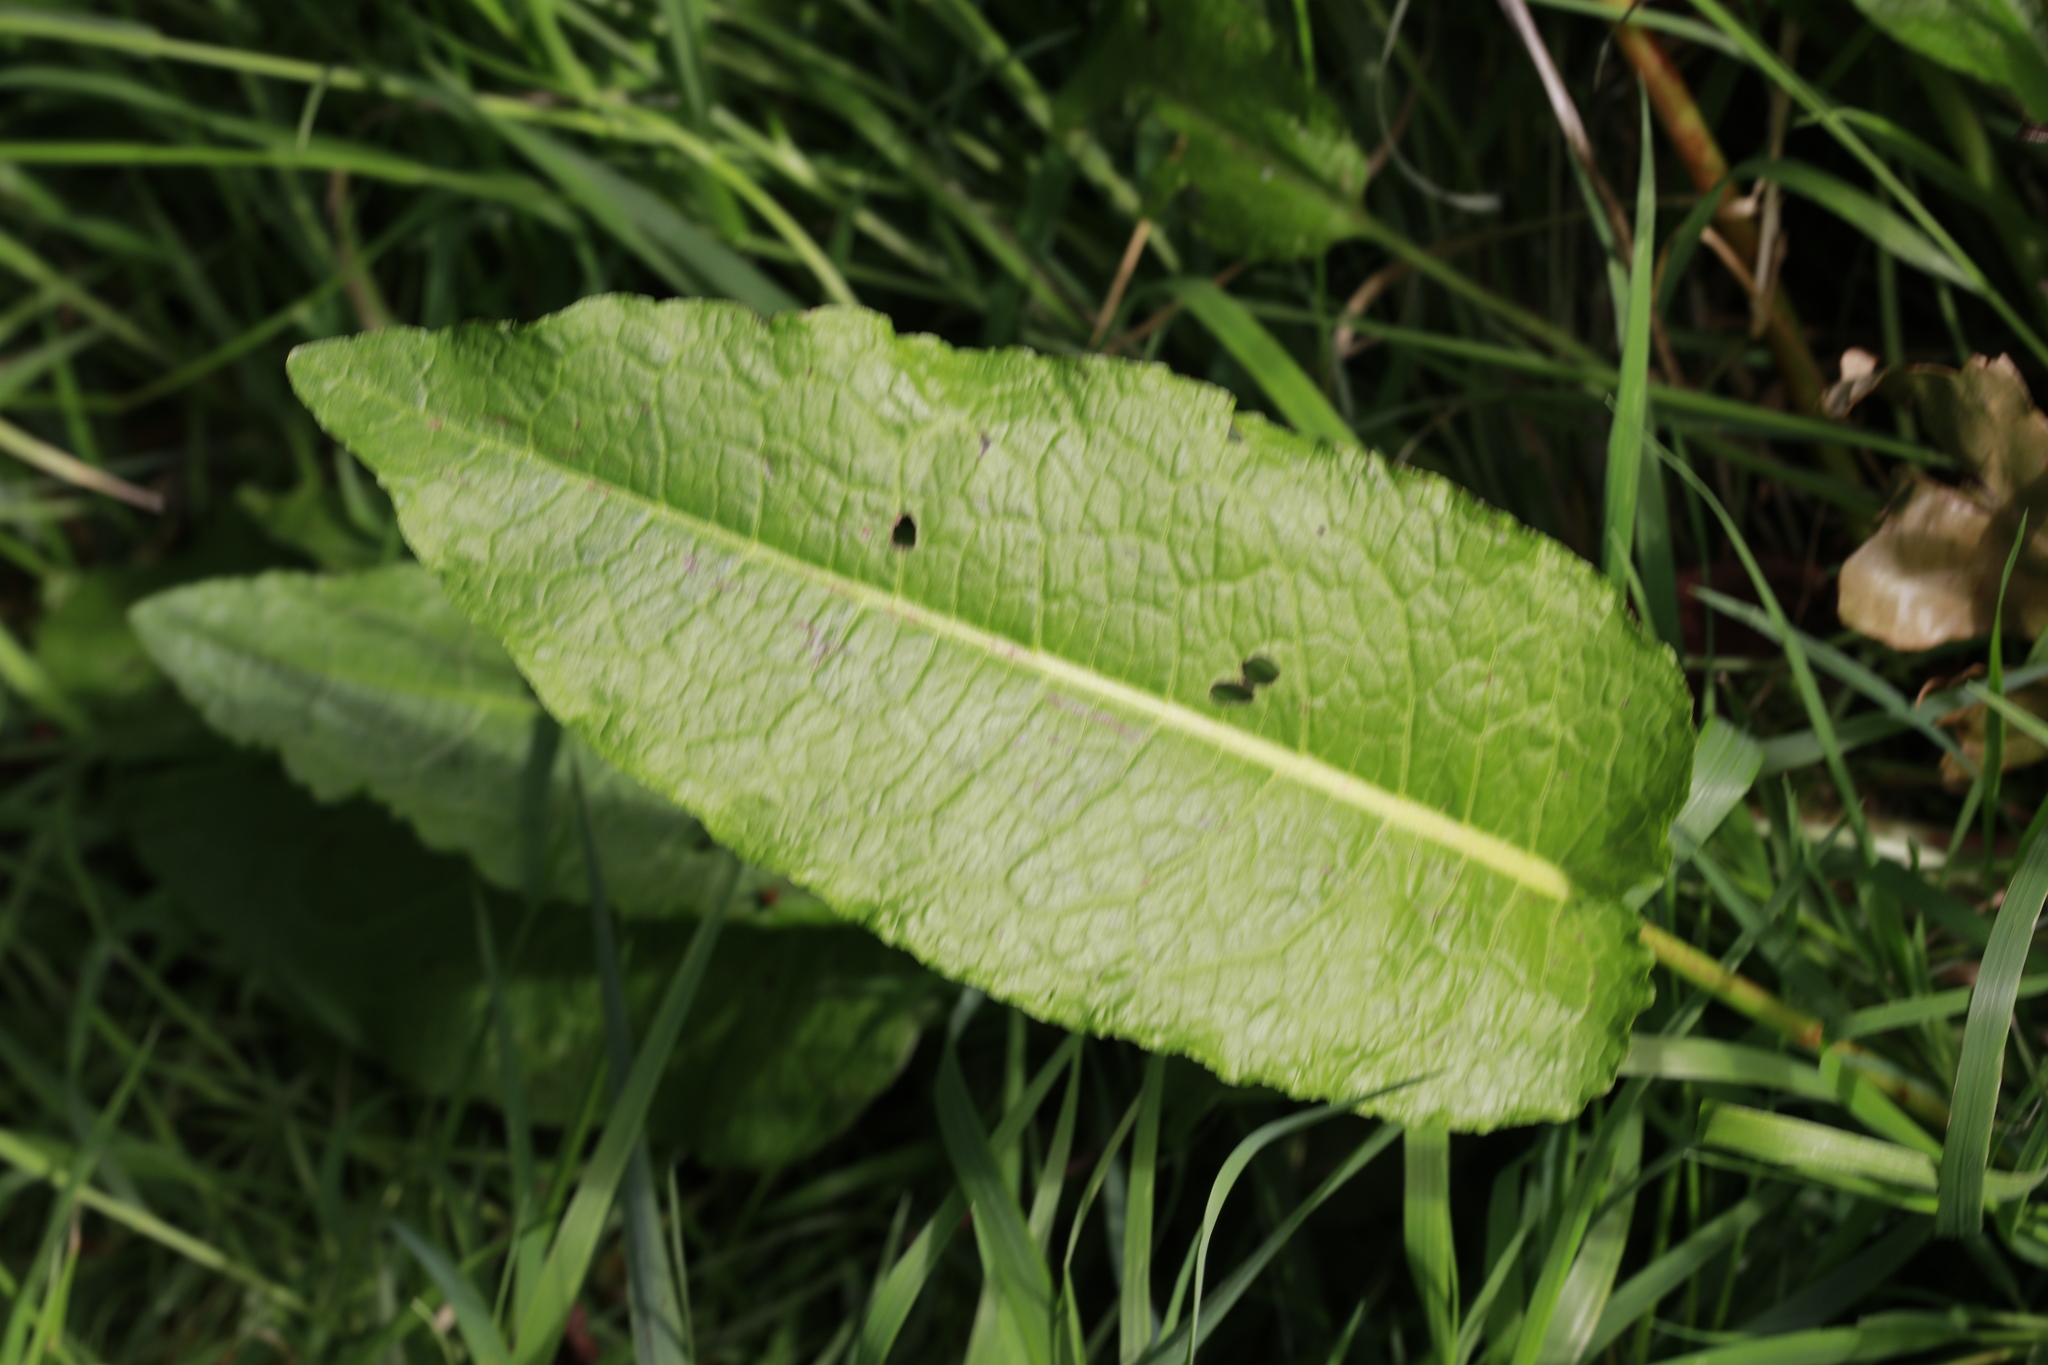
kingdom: Plantae
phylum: Tracheophyta
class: Magnoliopsida
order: Caryophyllales
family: Polygonaceae
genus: Rumex
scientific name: Rumex obtusifolius
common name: Bitter dock
